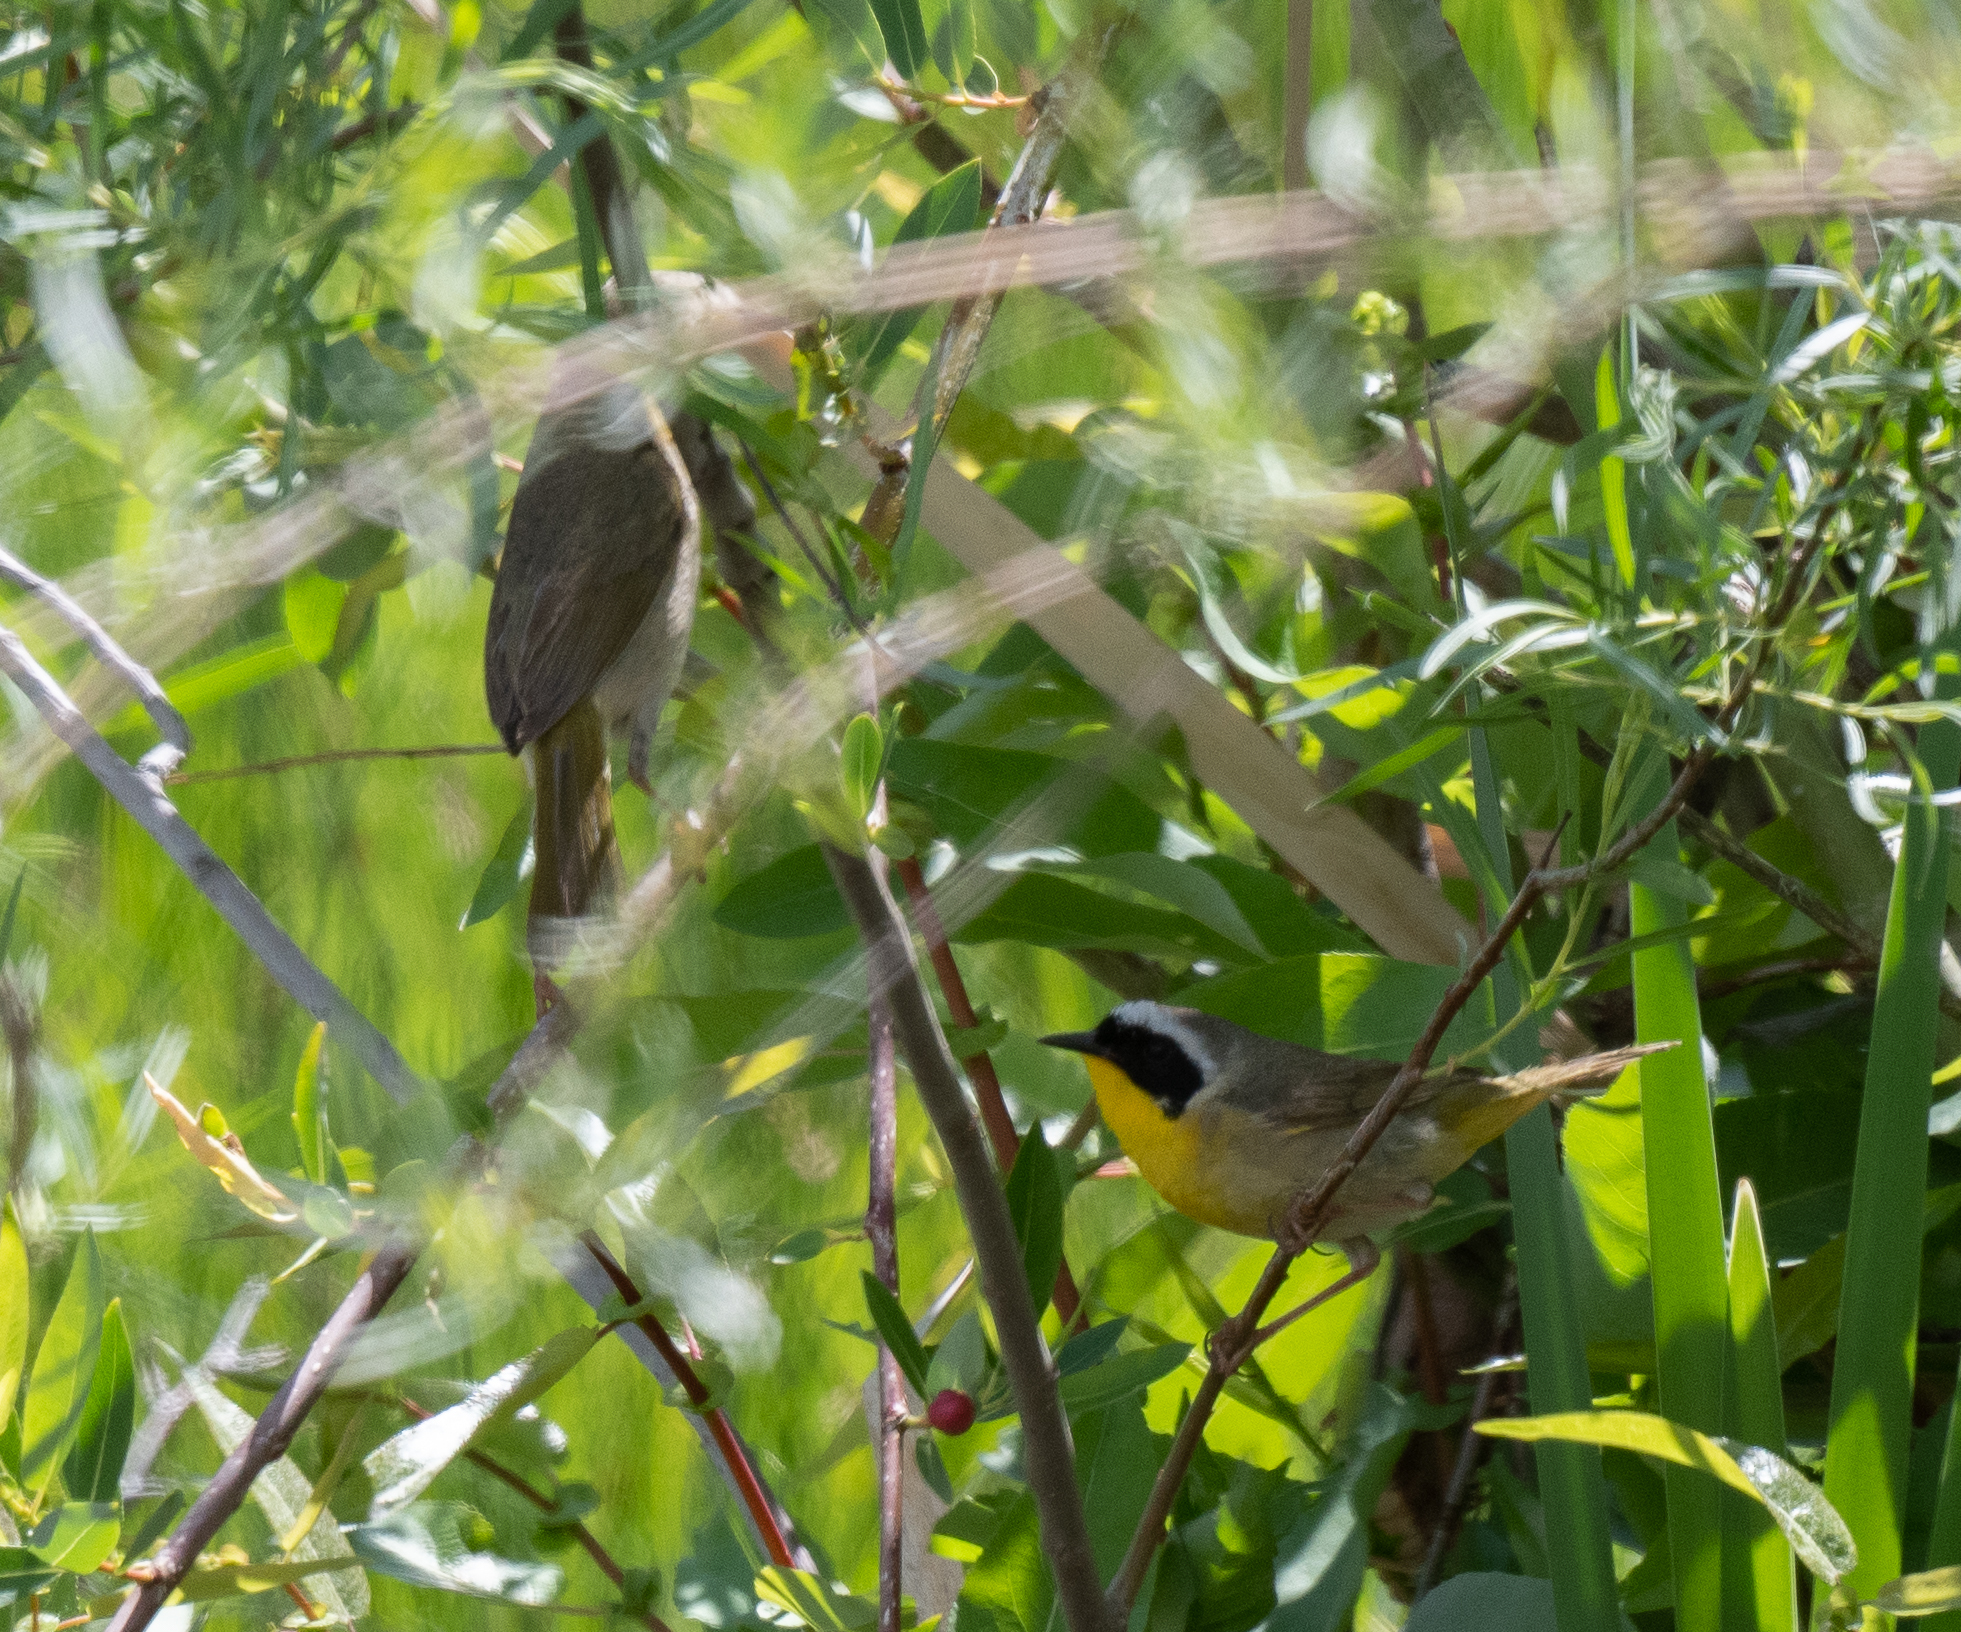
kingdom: Animalia
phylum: Chordata
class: Aves
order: Passeriformes
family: Parulidae
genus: Geothlypis
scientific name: Geothlypis trichas
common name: Common yellowthroat
